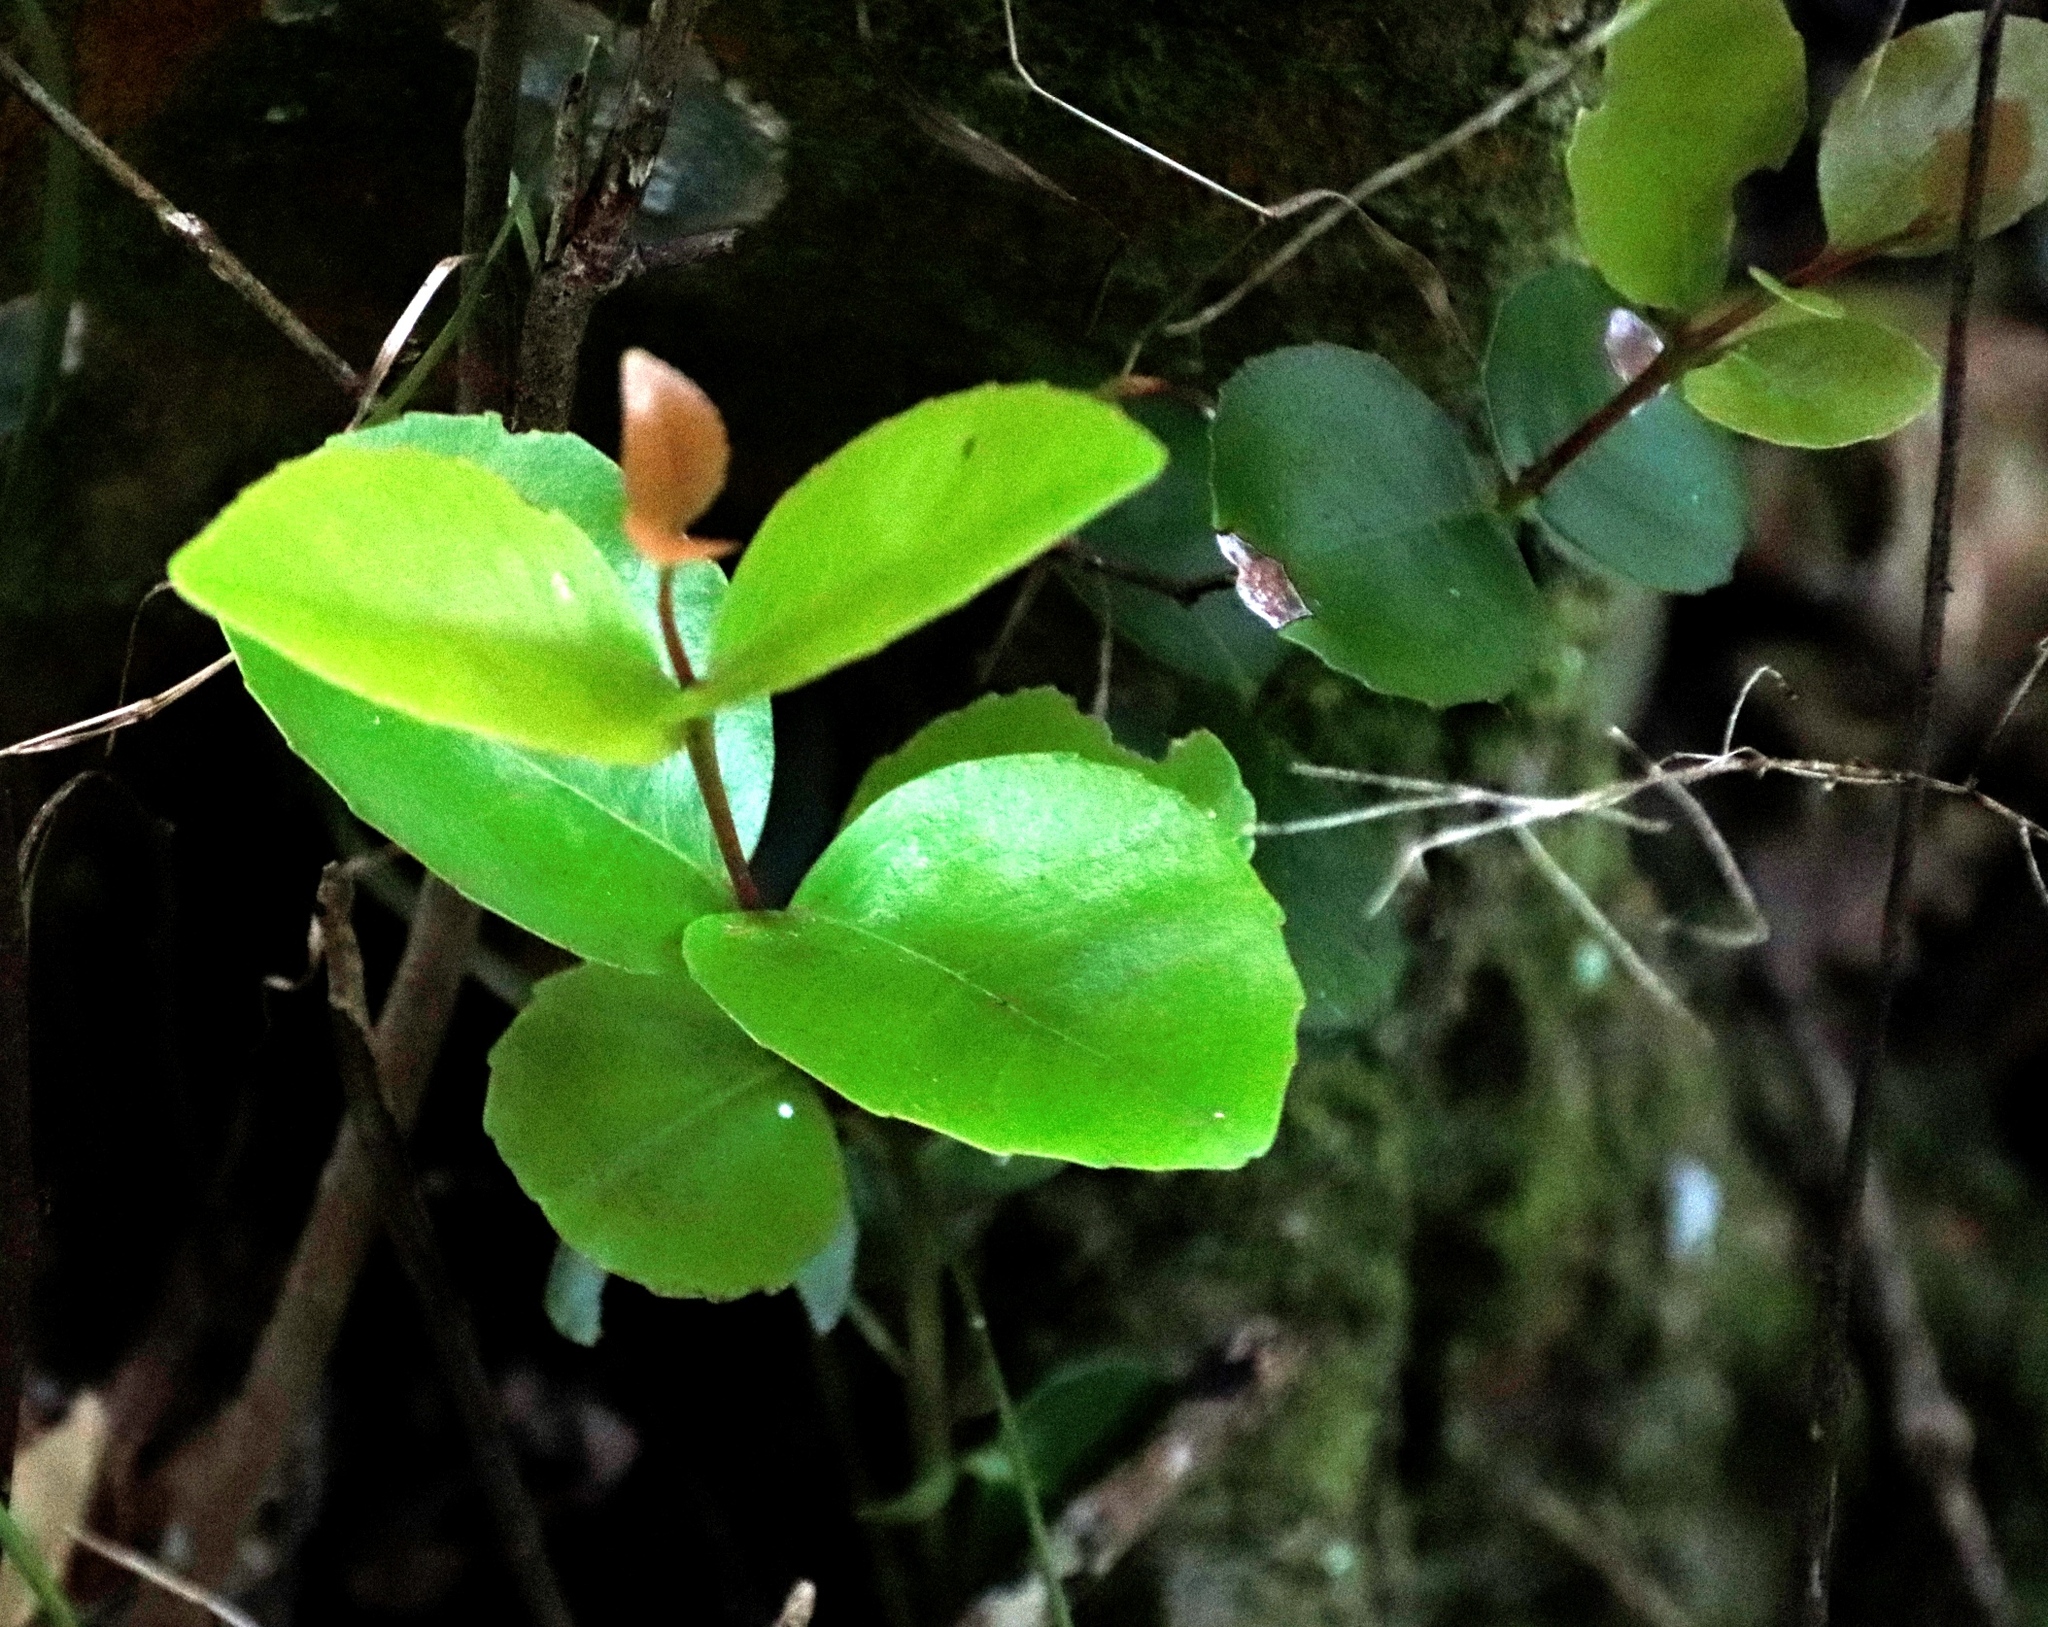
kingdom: Plantae
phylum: Tracheophyta
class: Magnoliopsida
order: Celastrales
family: Celastraceae
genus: Cassine
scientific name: Cassine peragua
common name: Cape saffron
